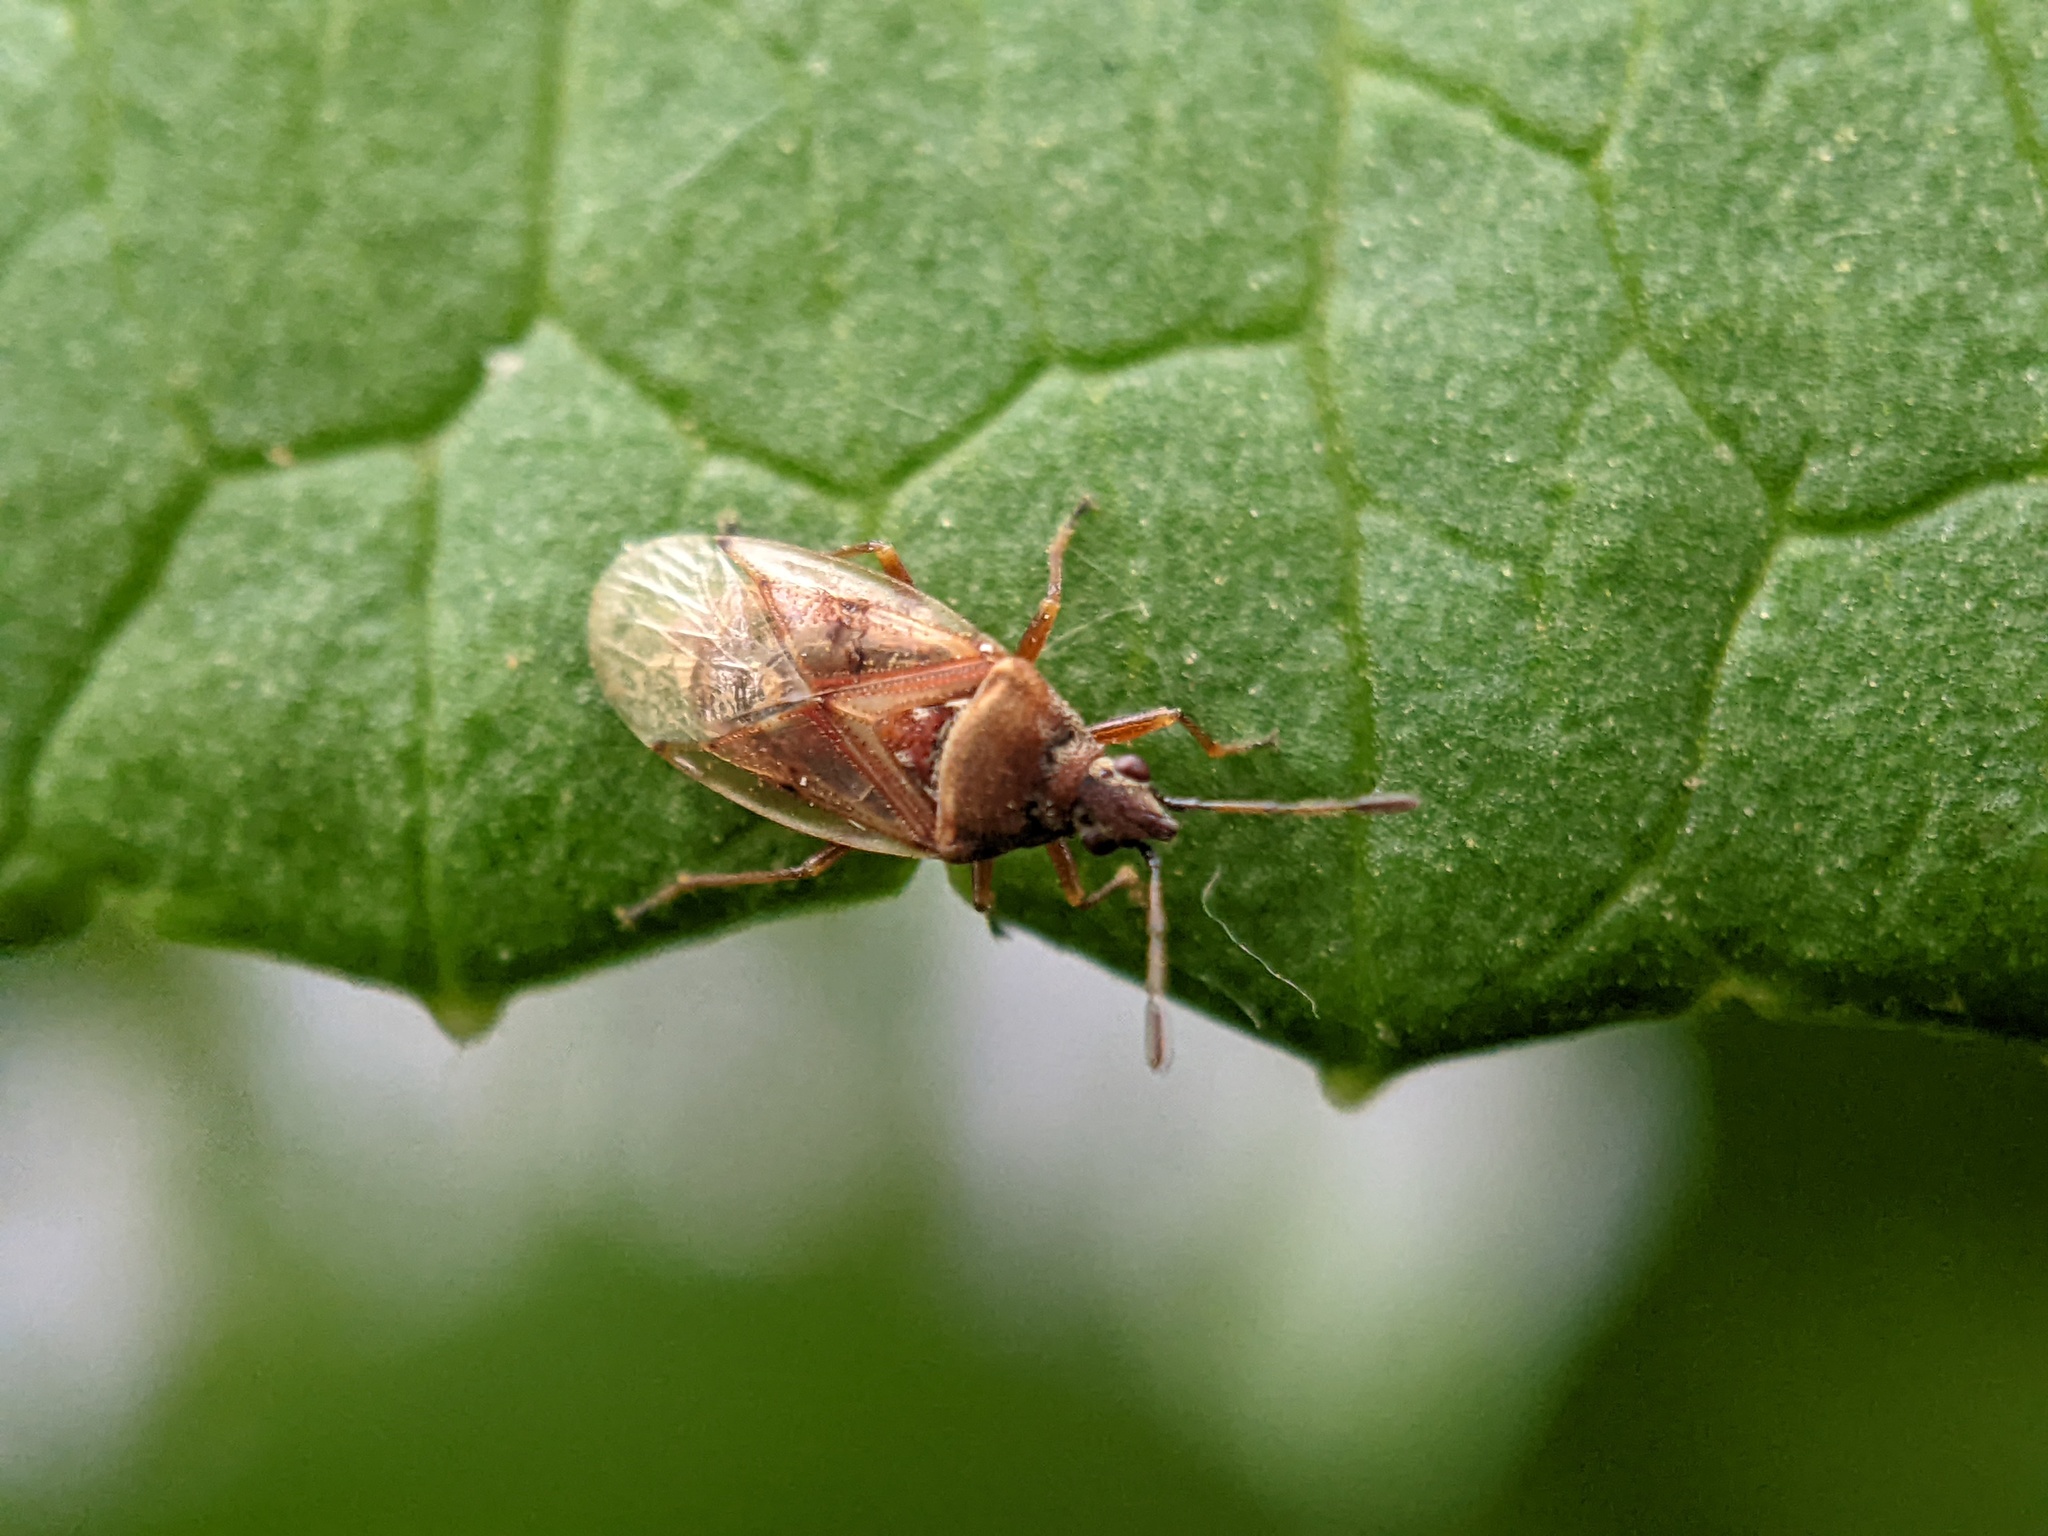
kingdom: Animalia
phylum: Arthropoda
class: Insecta
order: Hemiptera
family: Lygaeidae
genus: Kleidocerys
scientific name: Kleidocerys resedae
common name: Birch catkin bug
